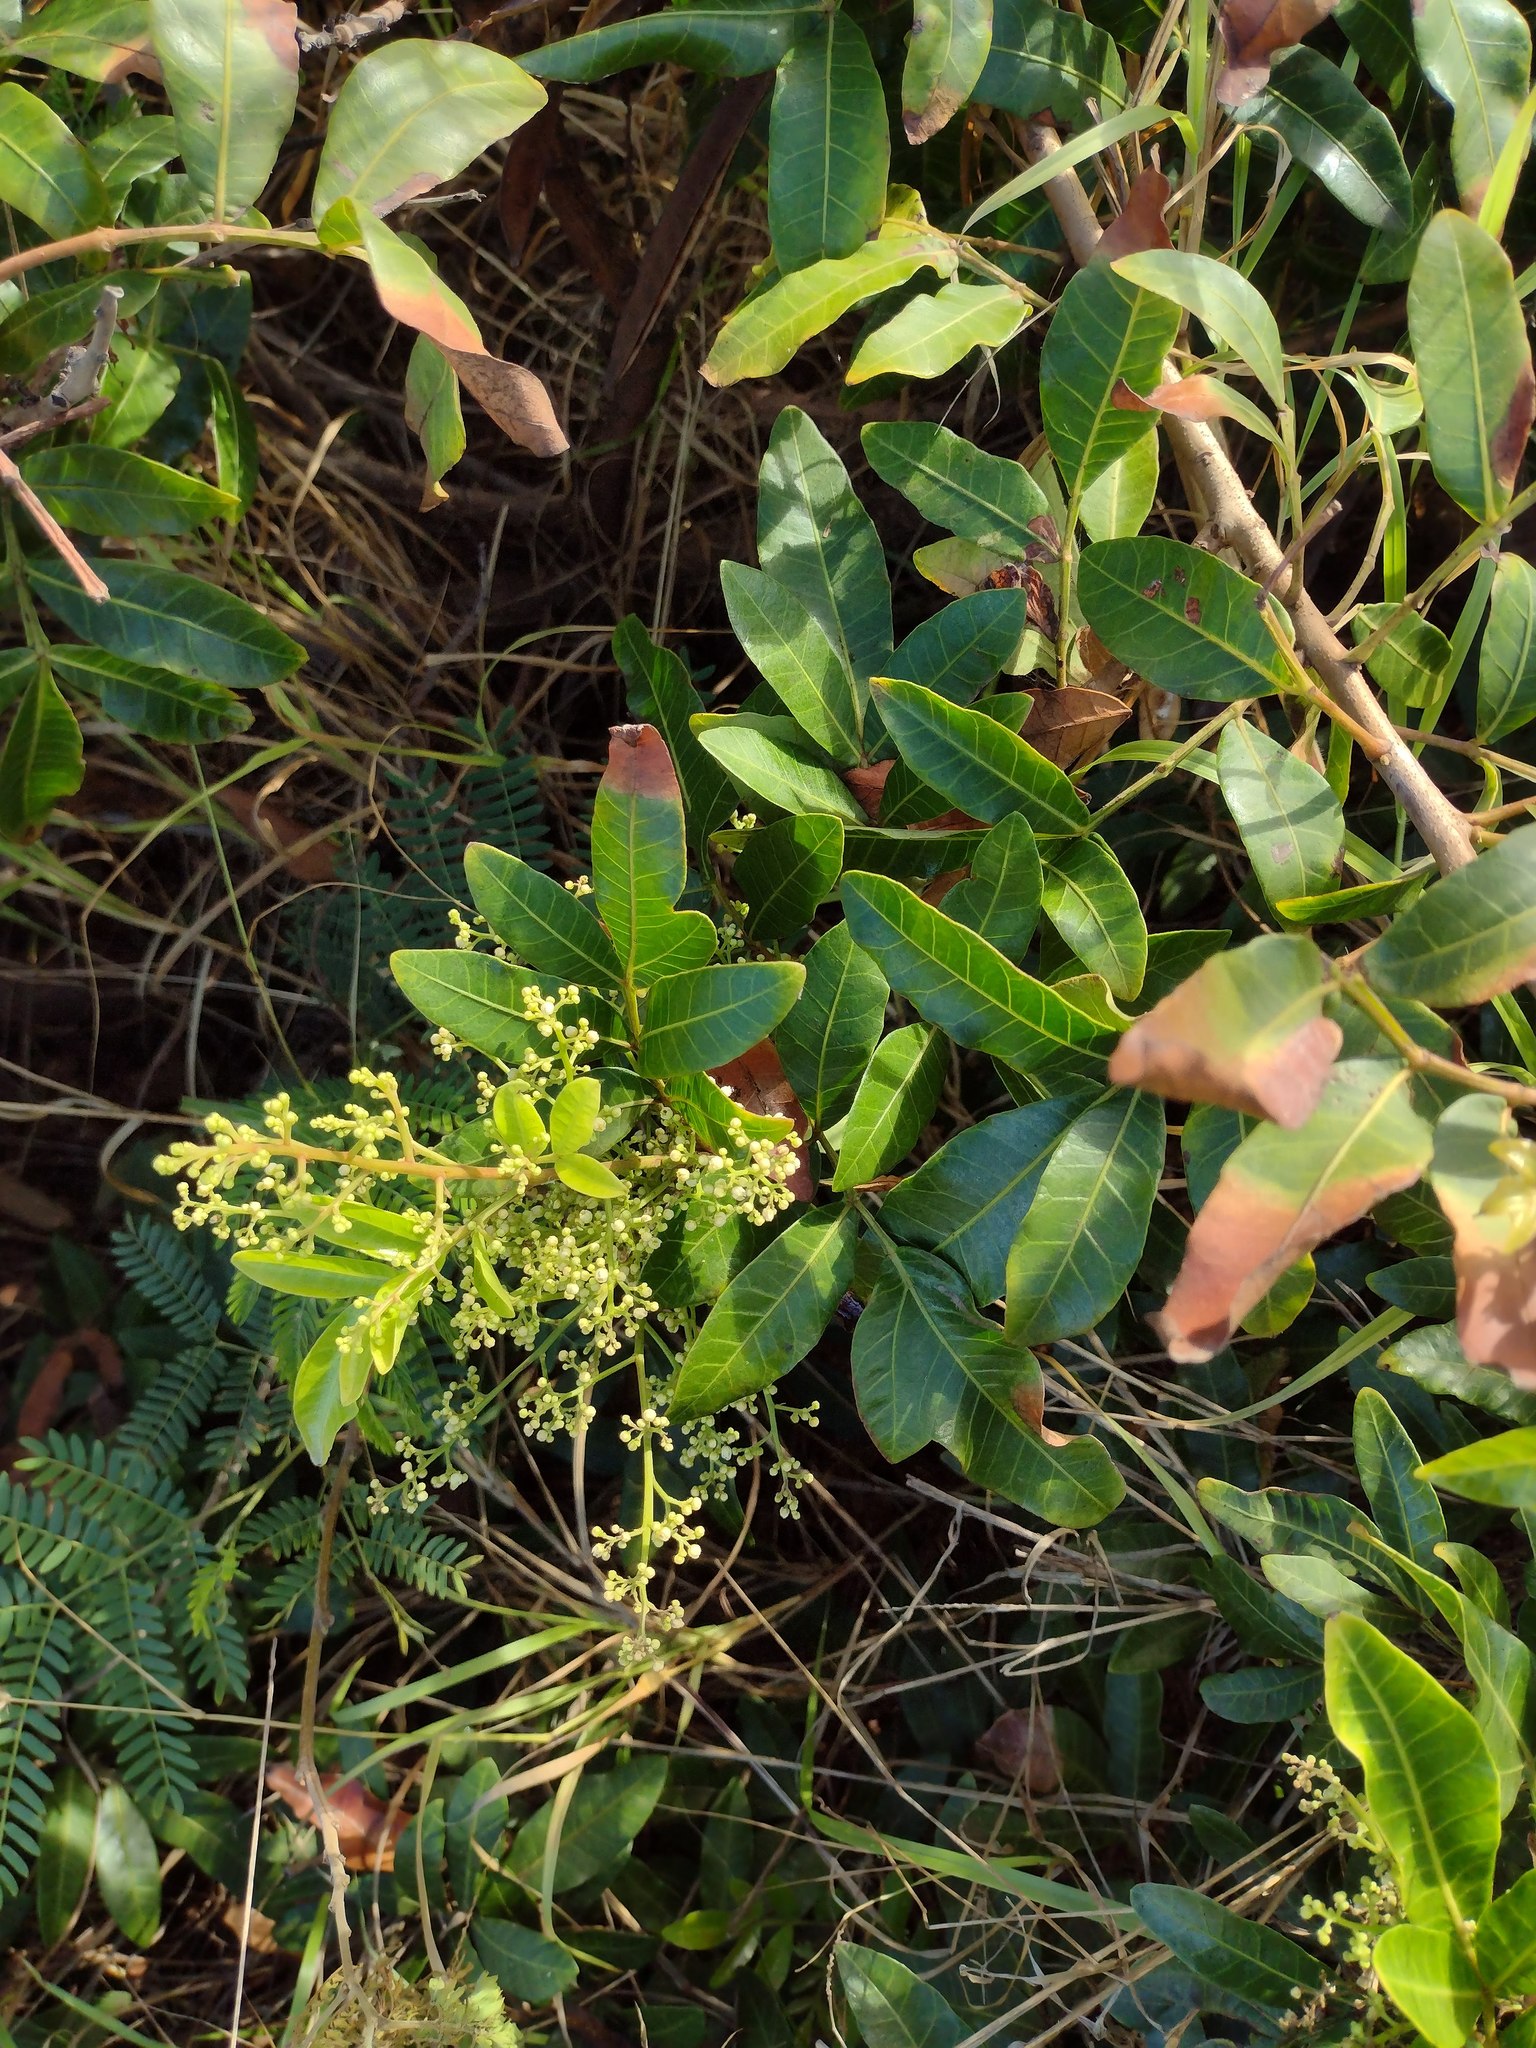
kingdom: Plantae
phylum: Tracheophyta
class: Magnoliopsida
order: Sapindales
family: Anacardiaceae
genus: Schinus
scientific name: Schinus terebinthifolia
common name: Brazilian peppertree
